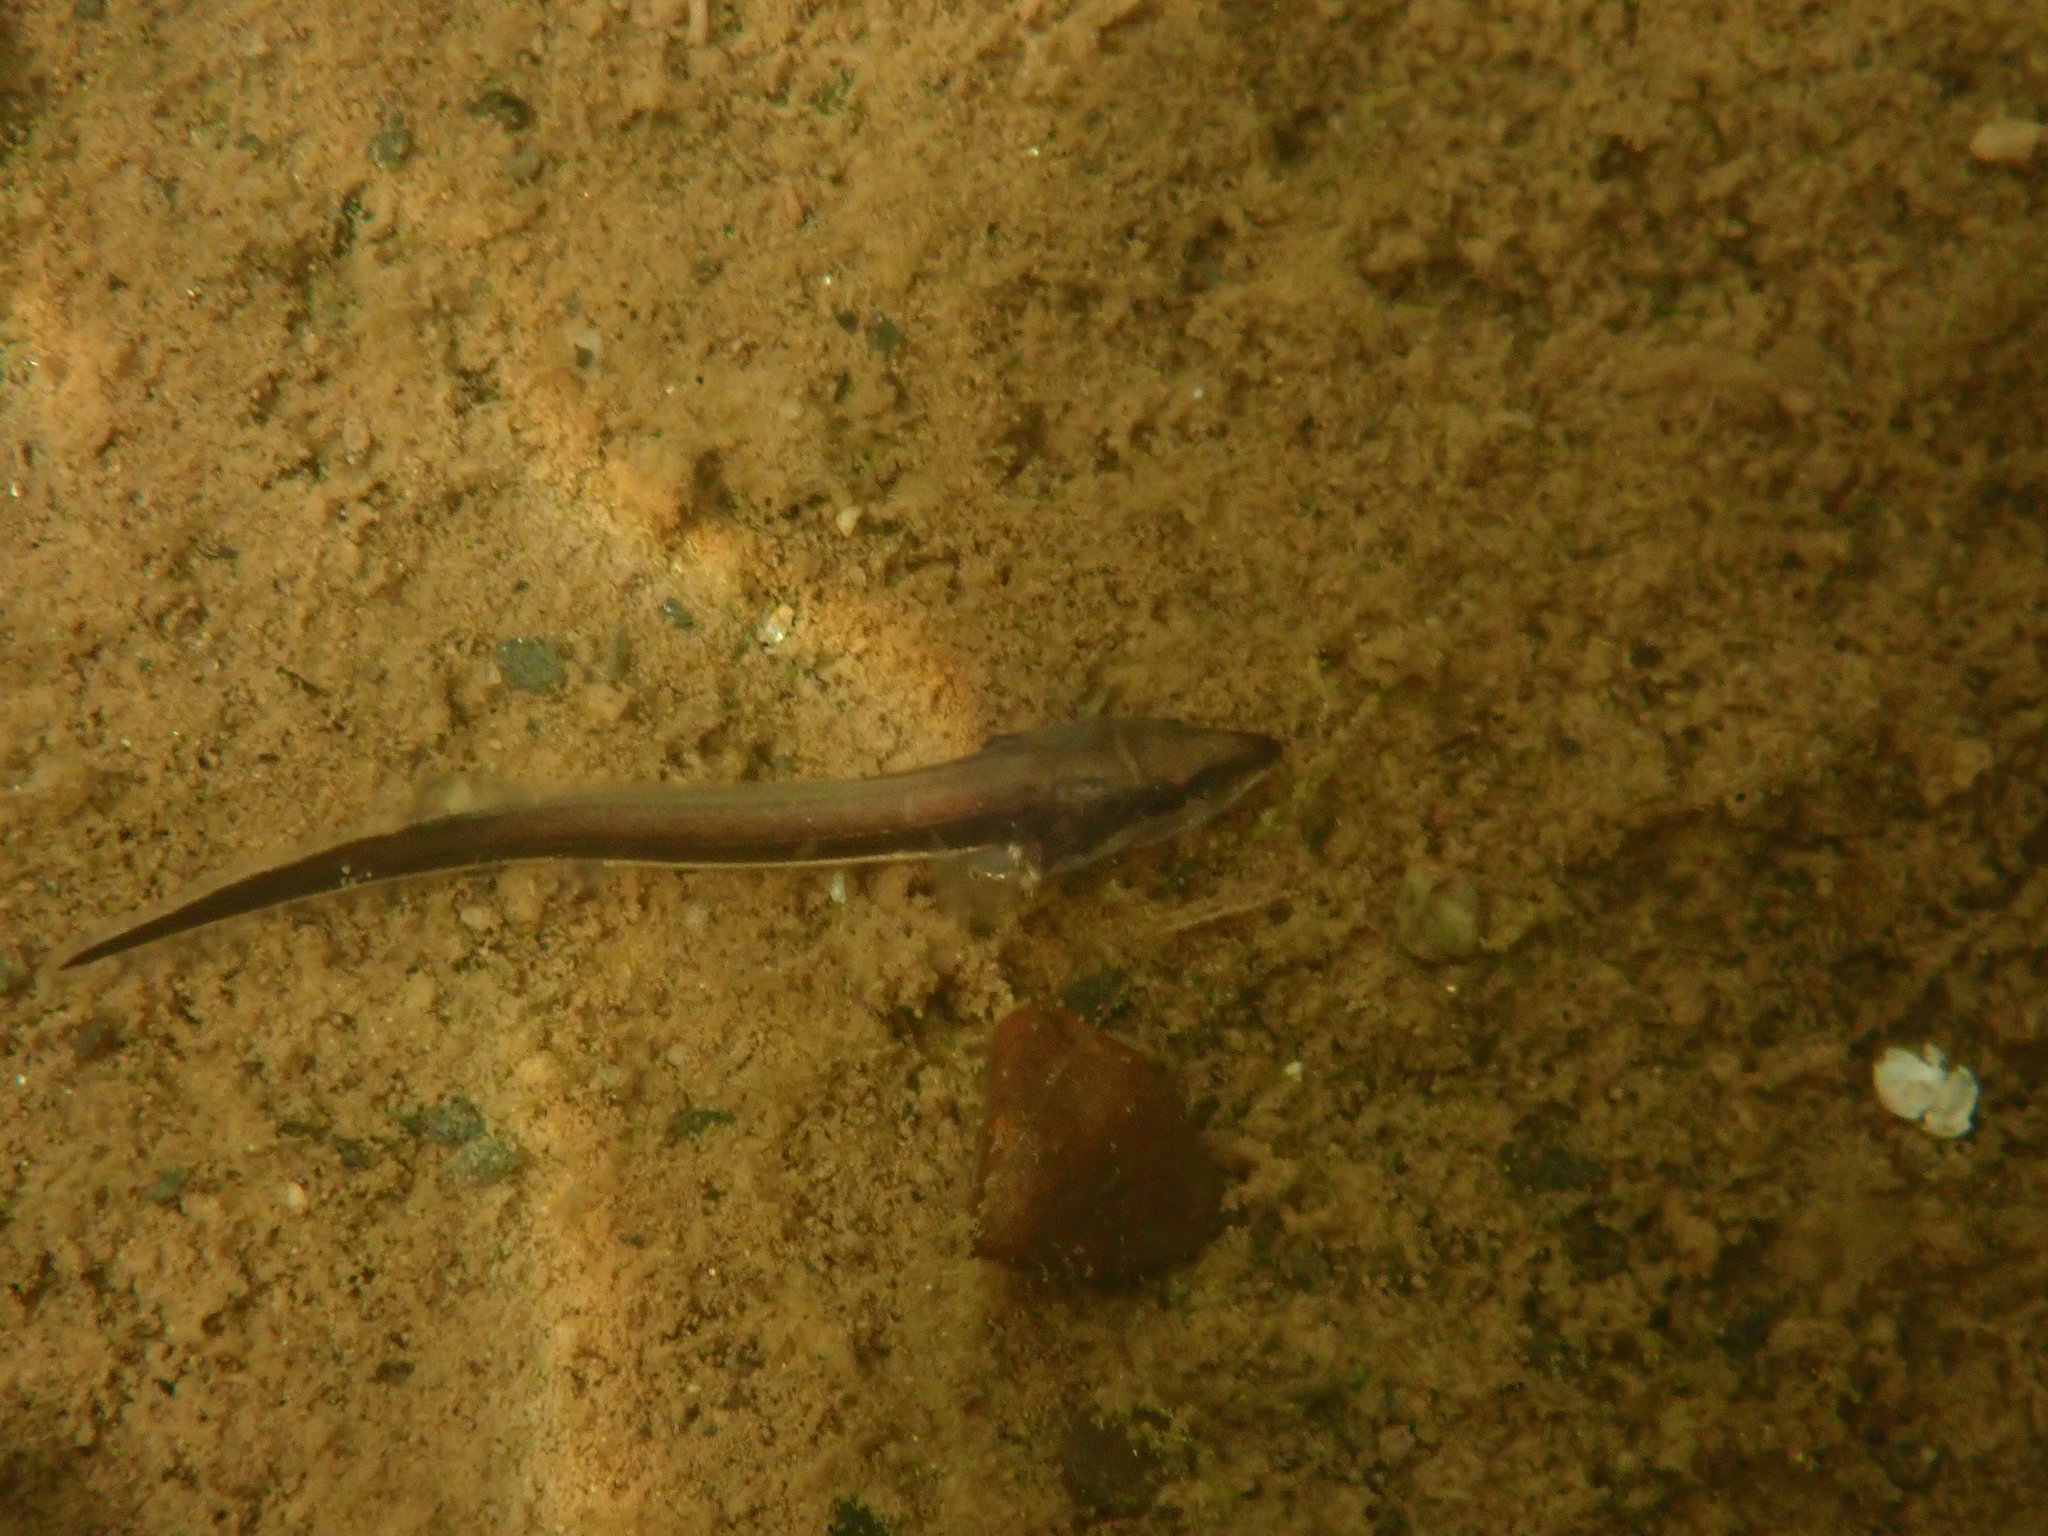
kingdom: Animalia
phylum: Chordata
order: Acipenseriformes
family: Acipenseridae
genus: Acipenser
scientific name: Acipenser fulvescens
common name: Lake sturgeon
